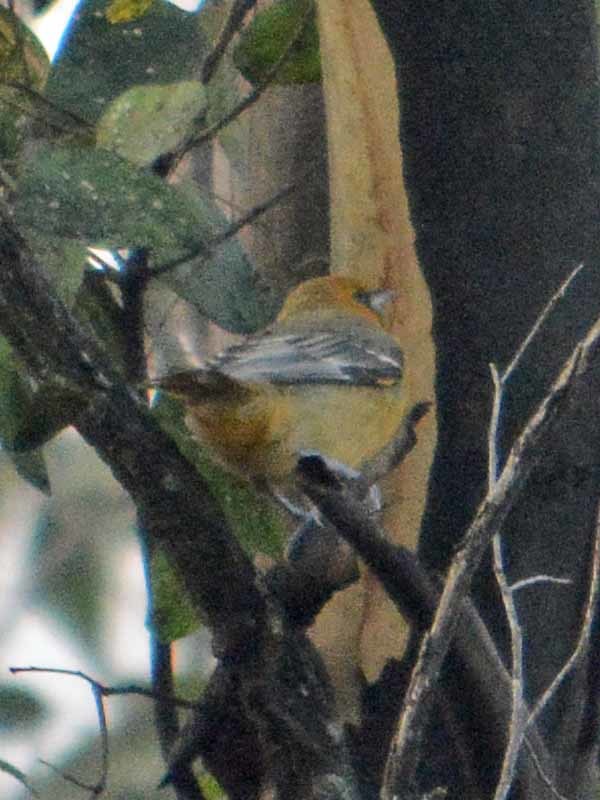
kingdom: Animalia
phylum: Chordata
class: Aves
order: Passeriformes
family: Icteridae
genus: Icterus
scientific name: Icterus pustulatus
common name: Streak-backed oriole
